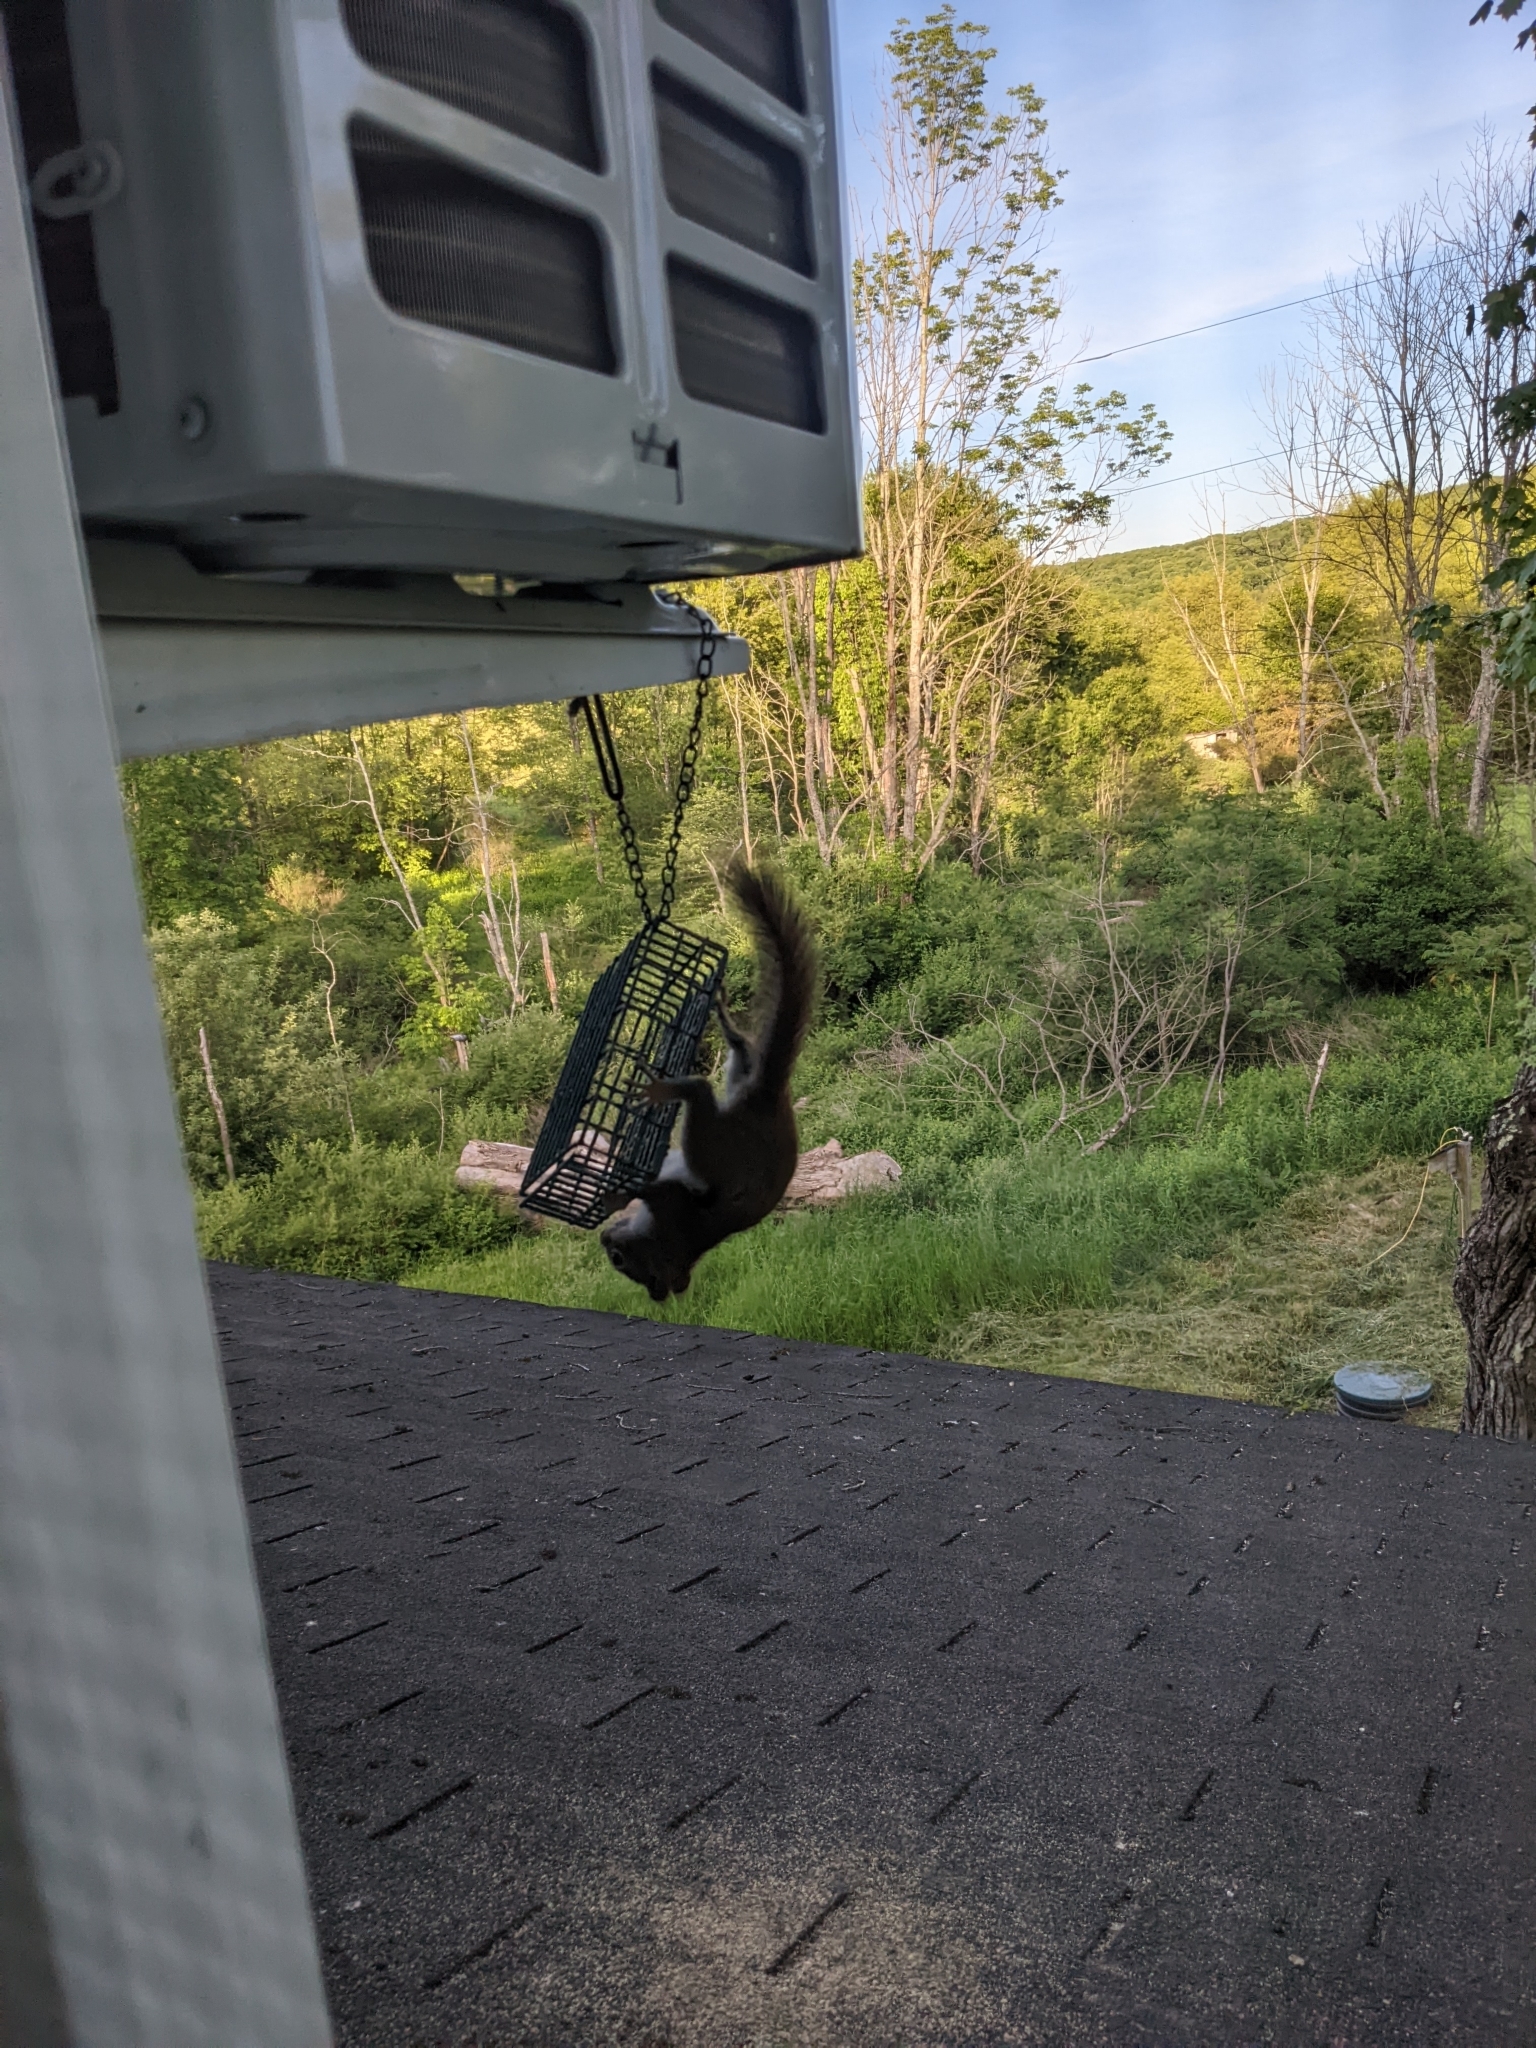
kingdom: Animalia
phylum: Chordata
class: Mammalia
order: Rodentia
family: Sciuridae
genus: Tamiasciurus
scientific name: Tamiasciurus hudsonicus
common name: Red squirrel
